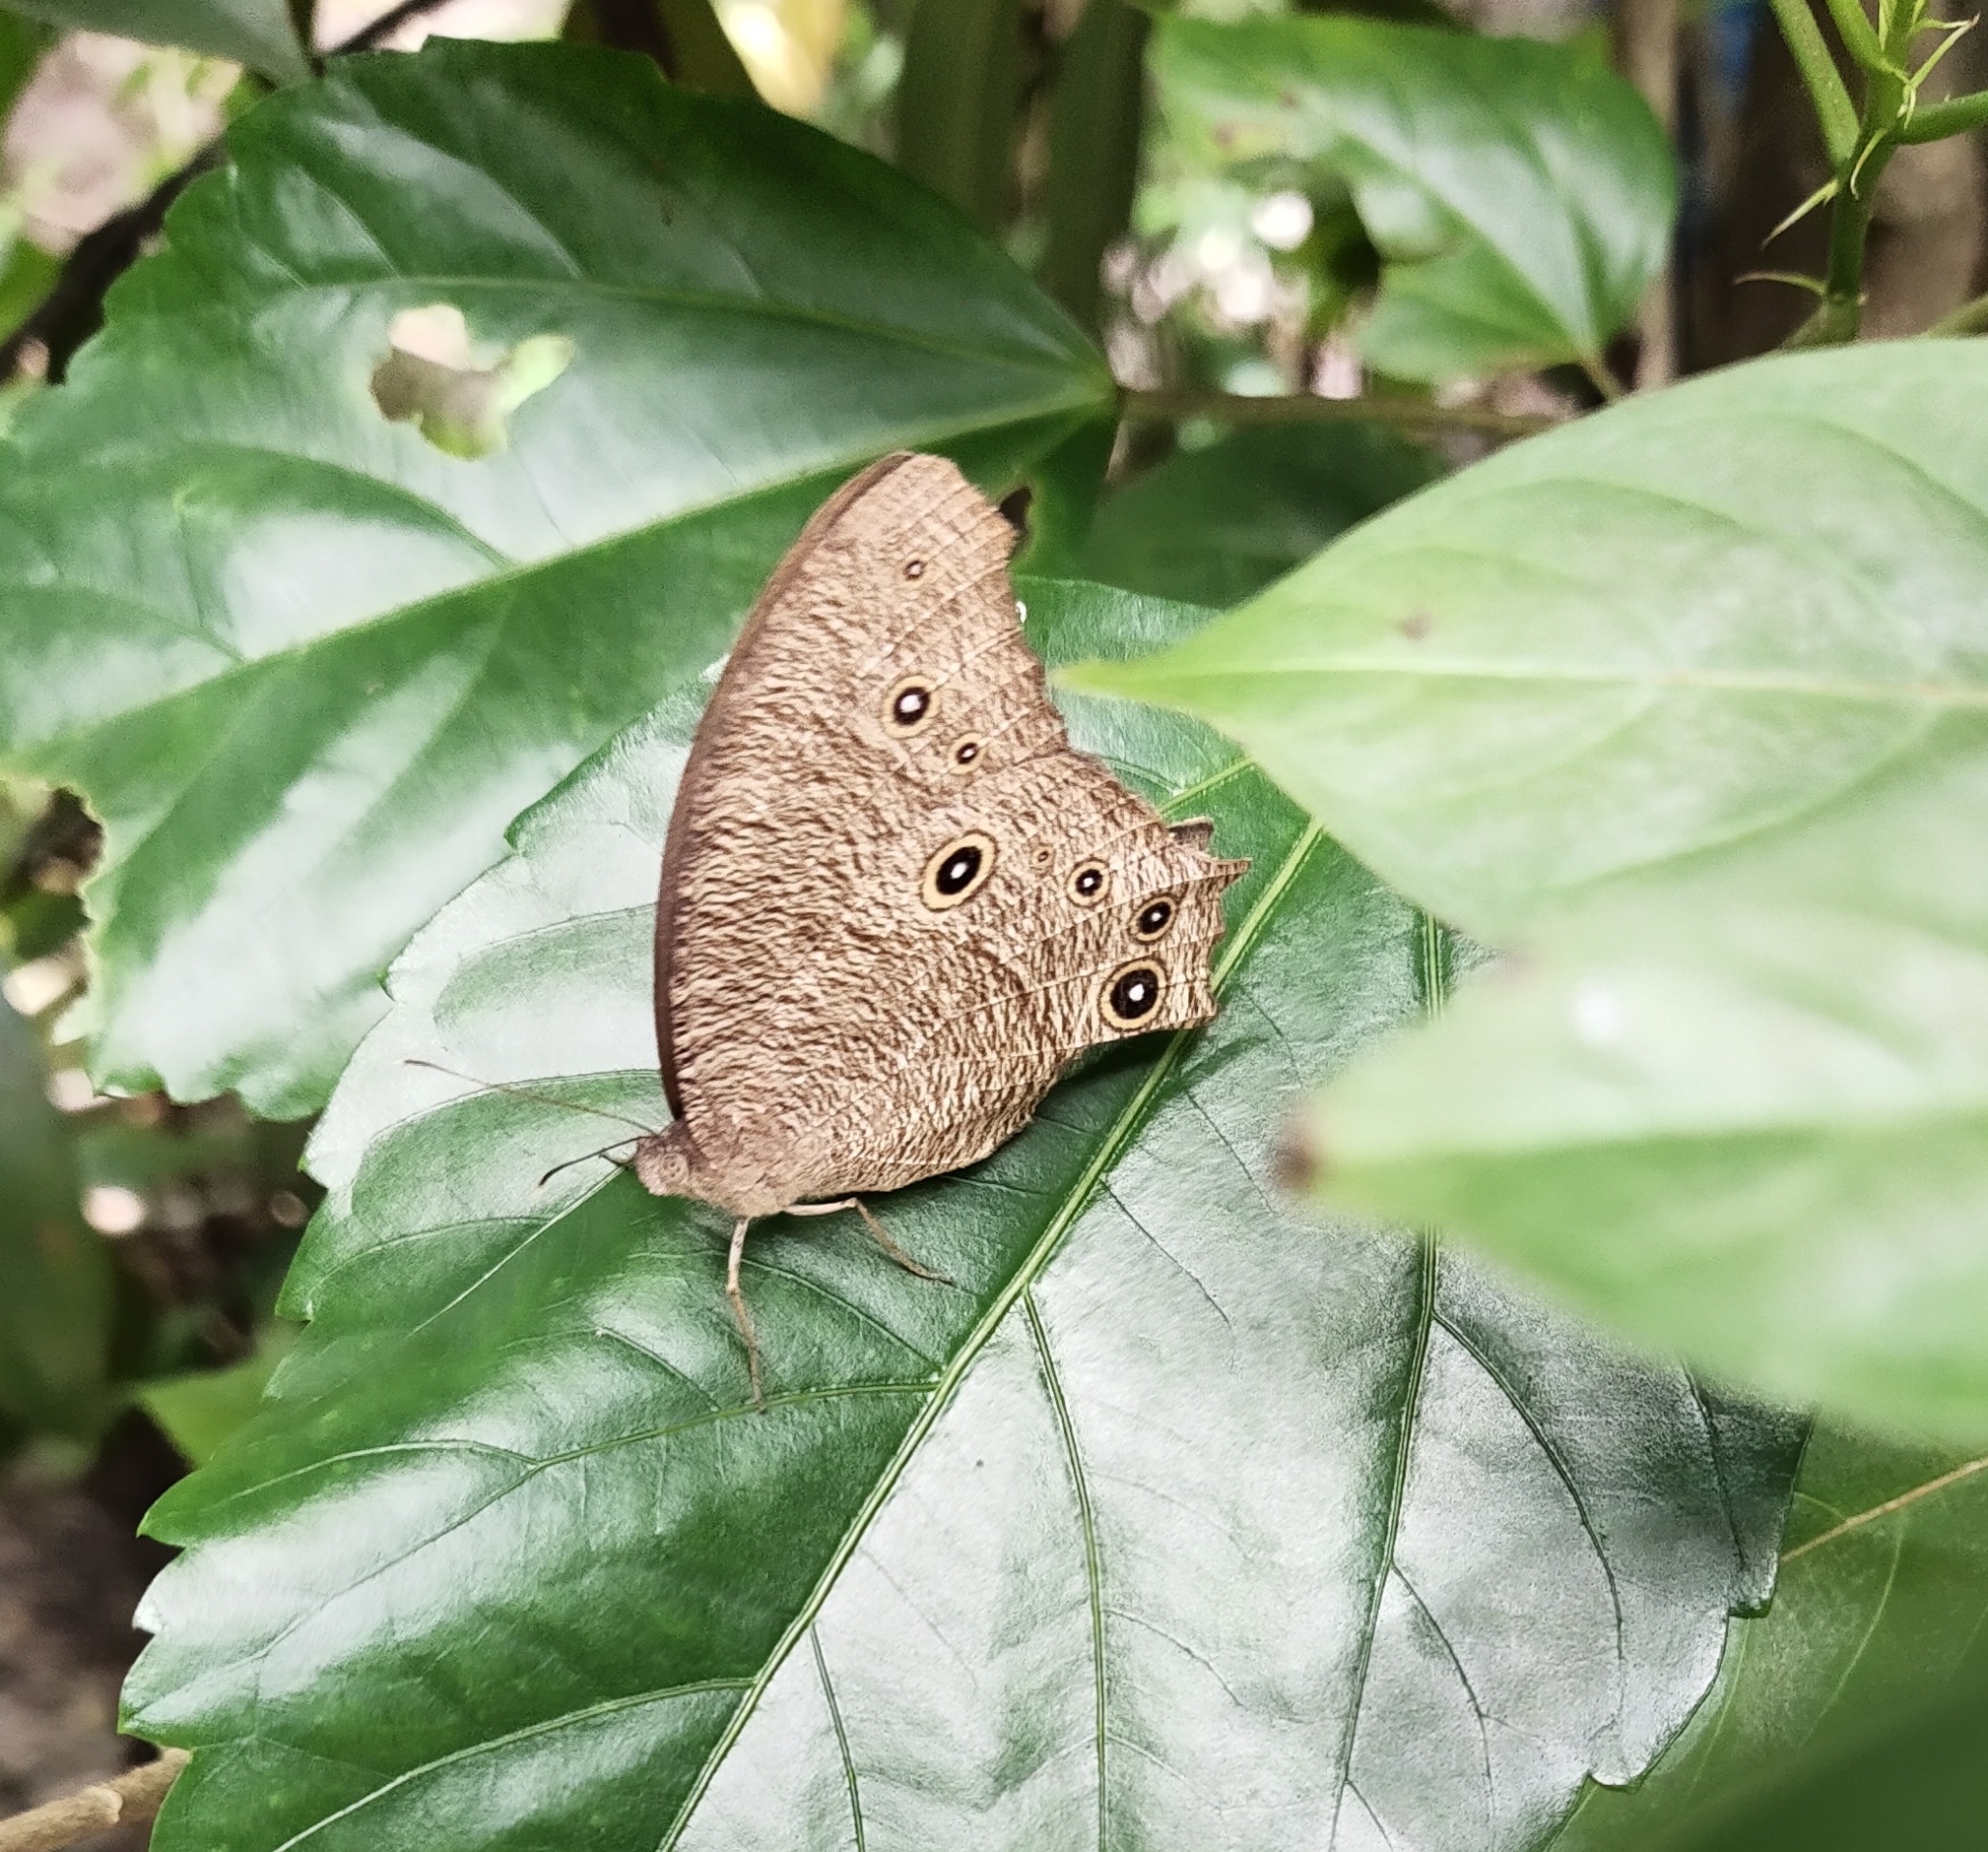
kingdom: Animalia
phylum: Arthropoda
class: Insecta
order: Lepidoptera
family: Nymphalidae
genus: Melanitis
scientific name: Melanitis leda
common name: Twilight brown
